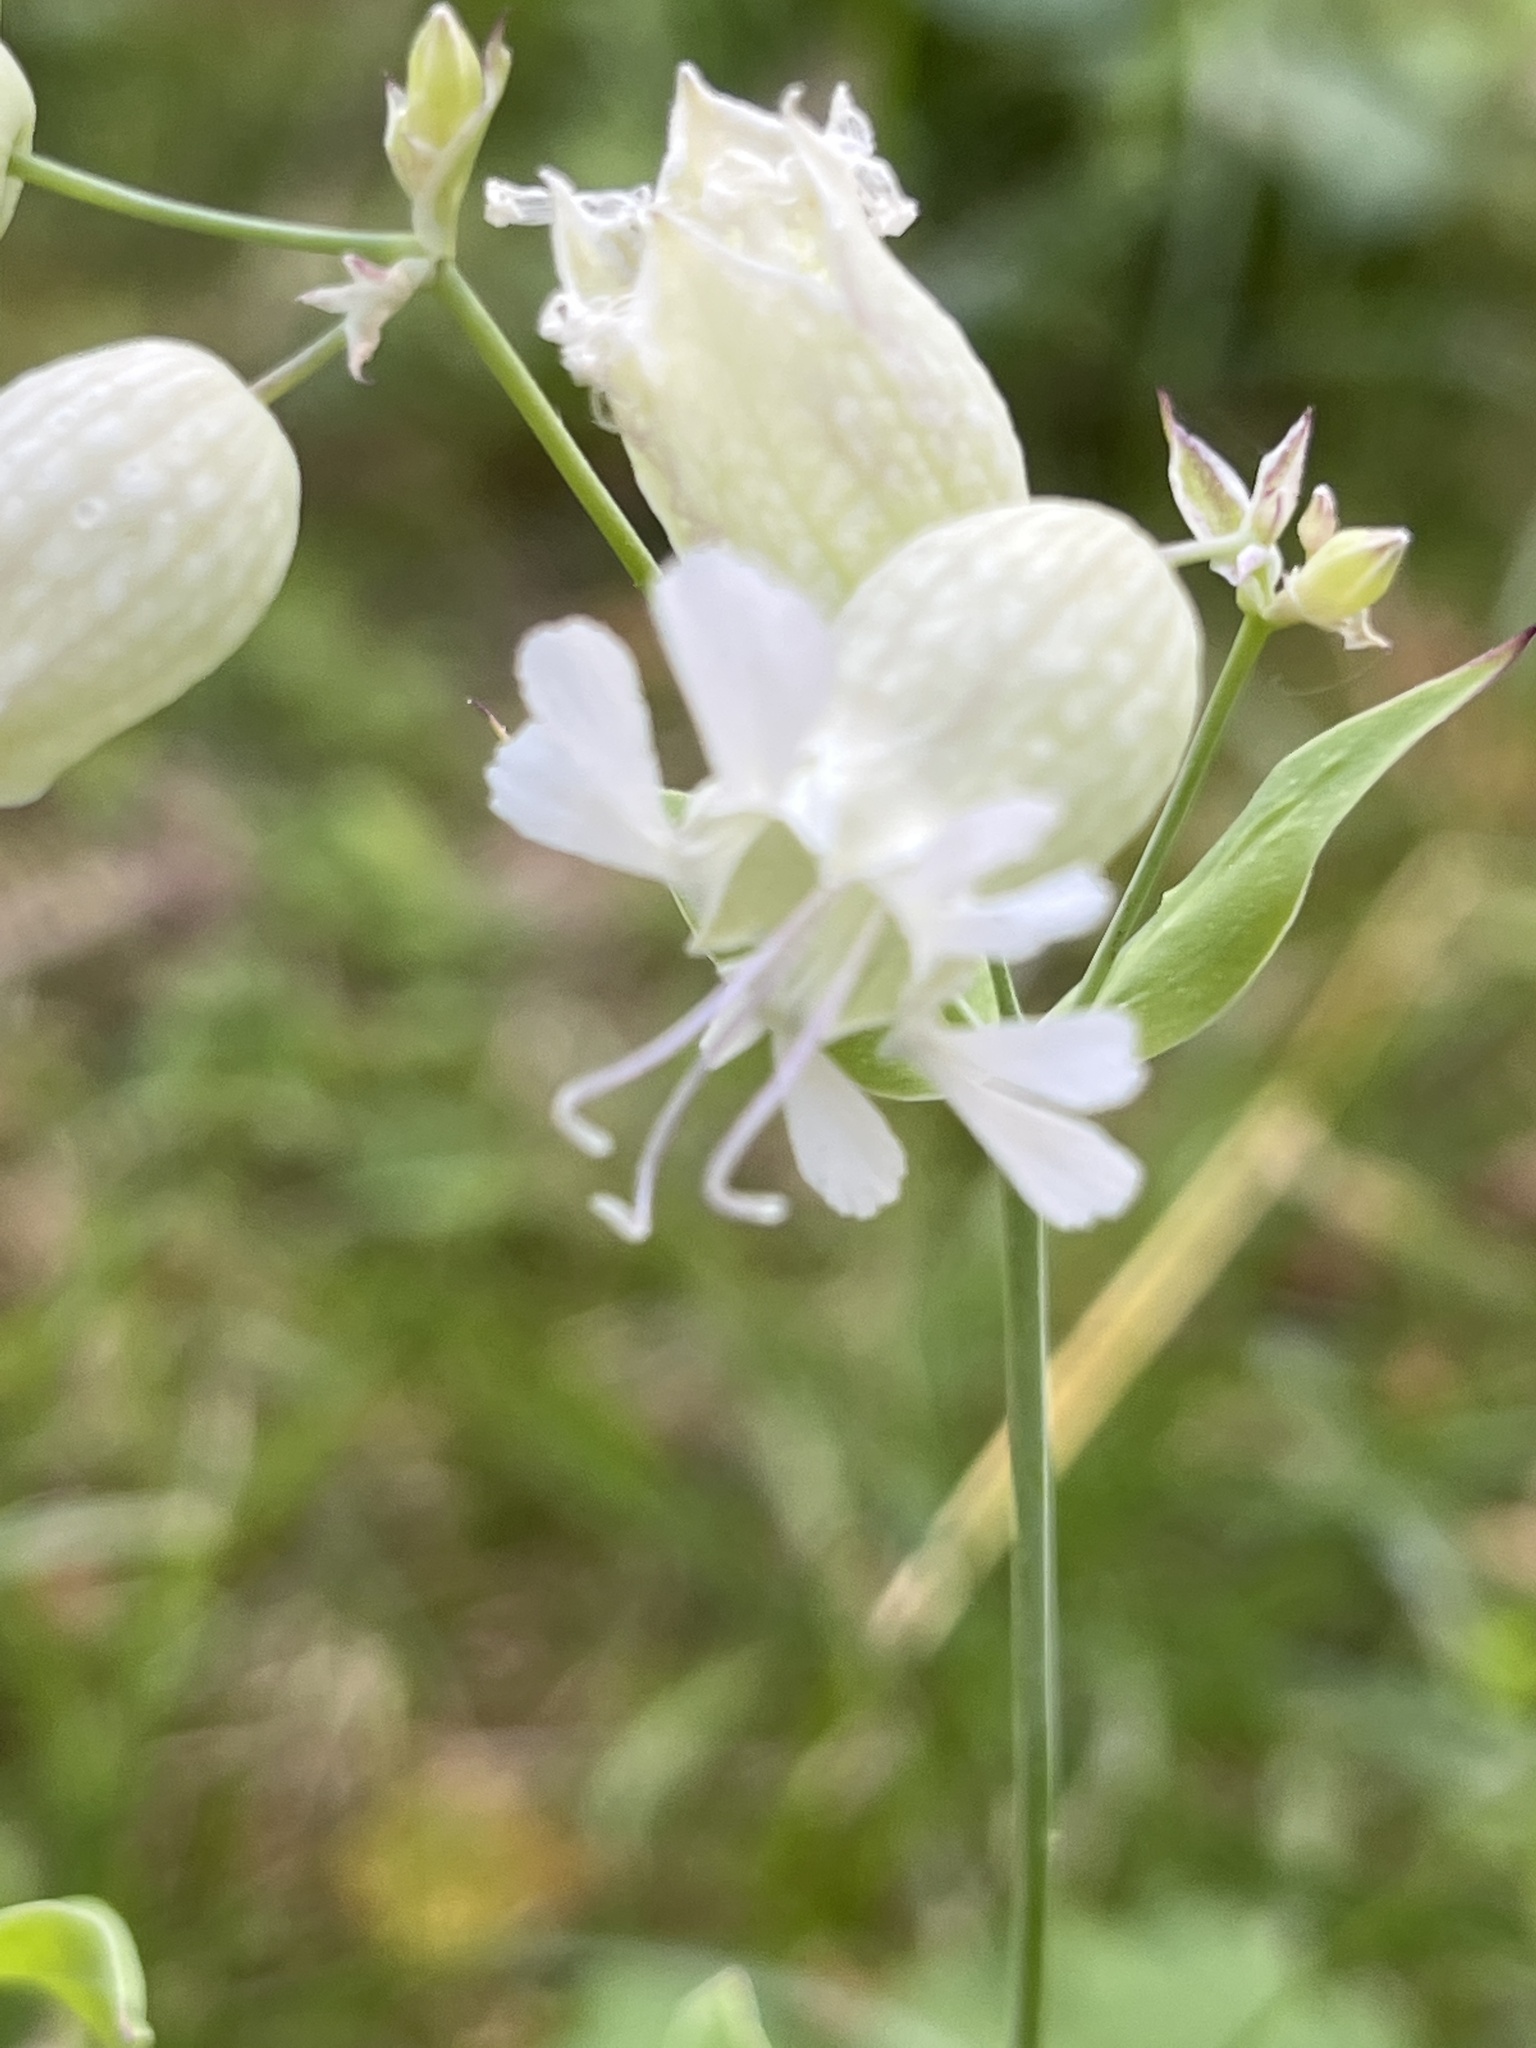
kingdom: Plantae
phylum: Tracheophyta
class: Magnoliopsida
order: Caryophyllales
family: Caryophyllaceae
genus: Silene
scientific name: Silene vulgaris
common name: Bladder campion
